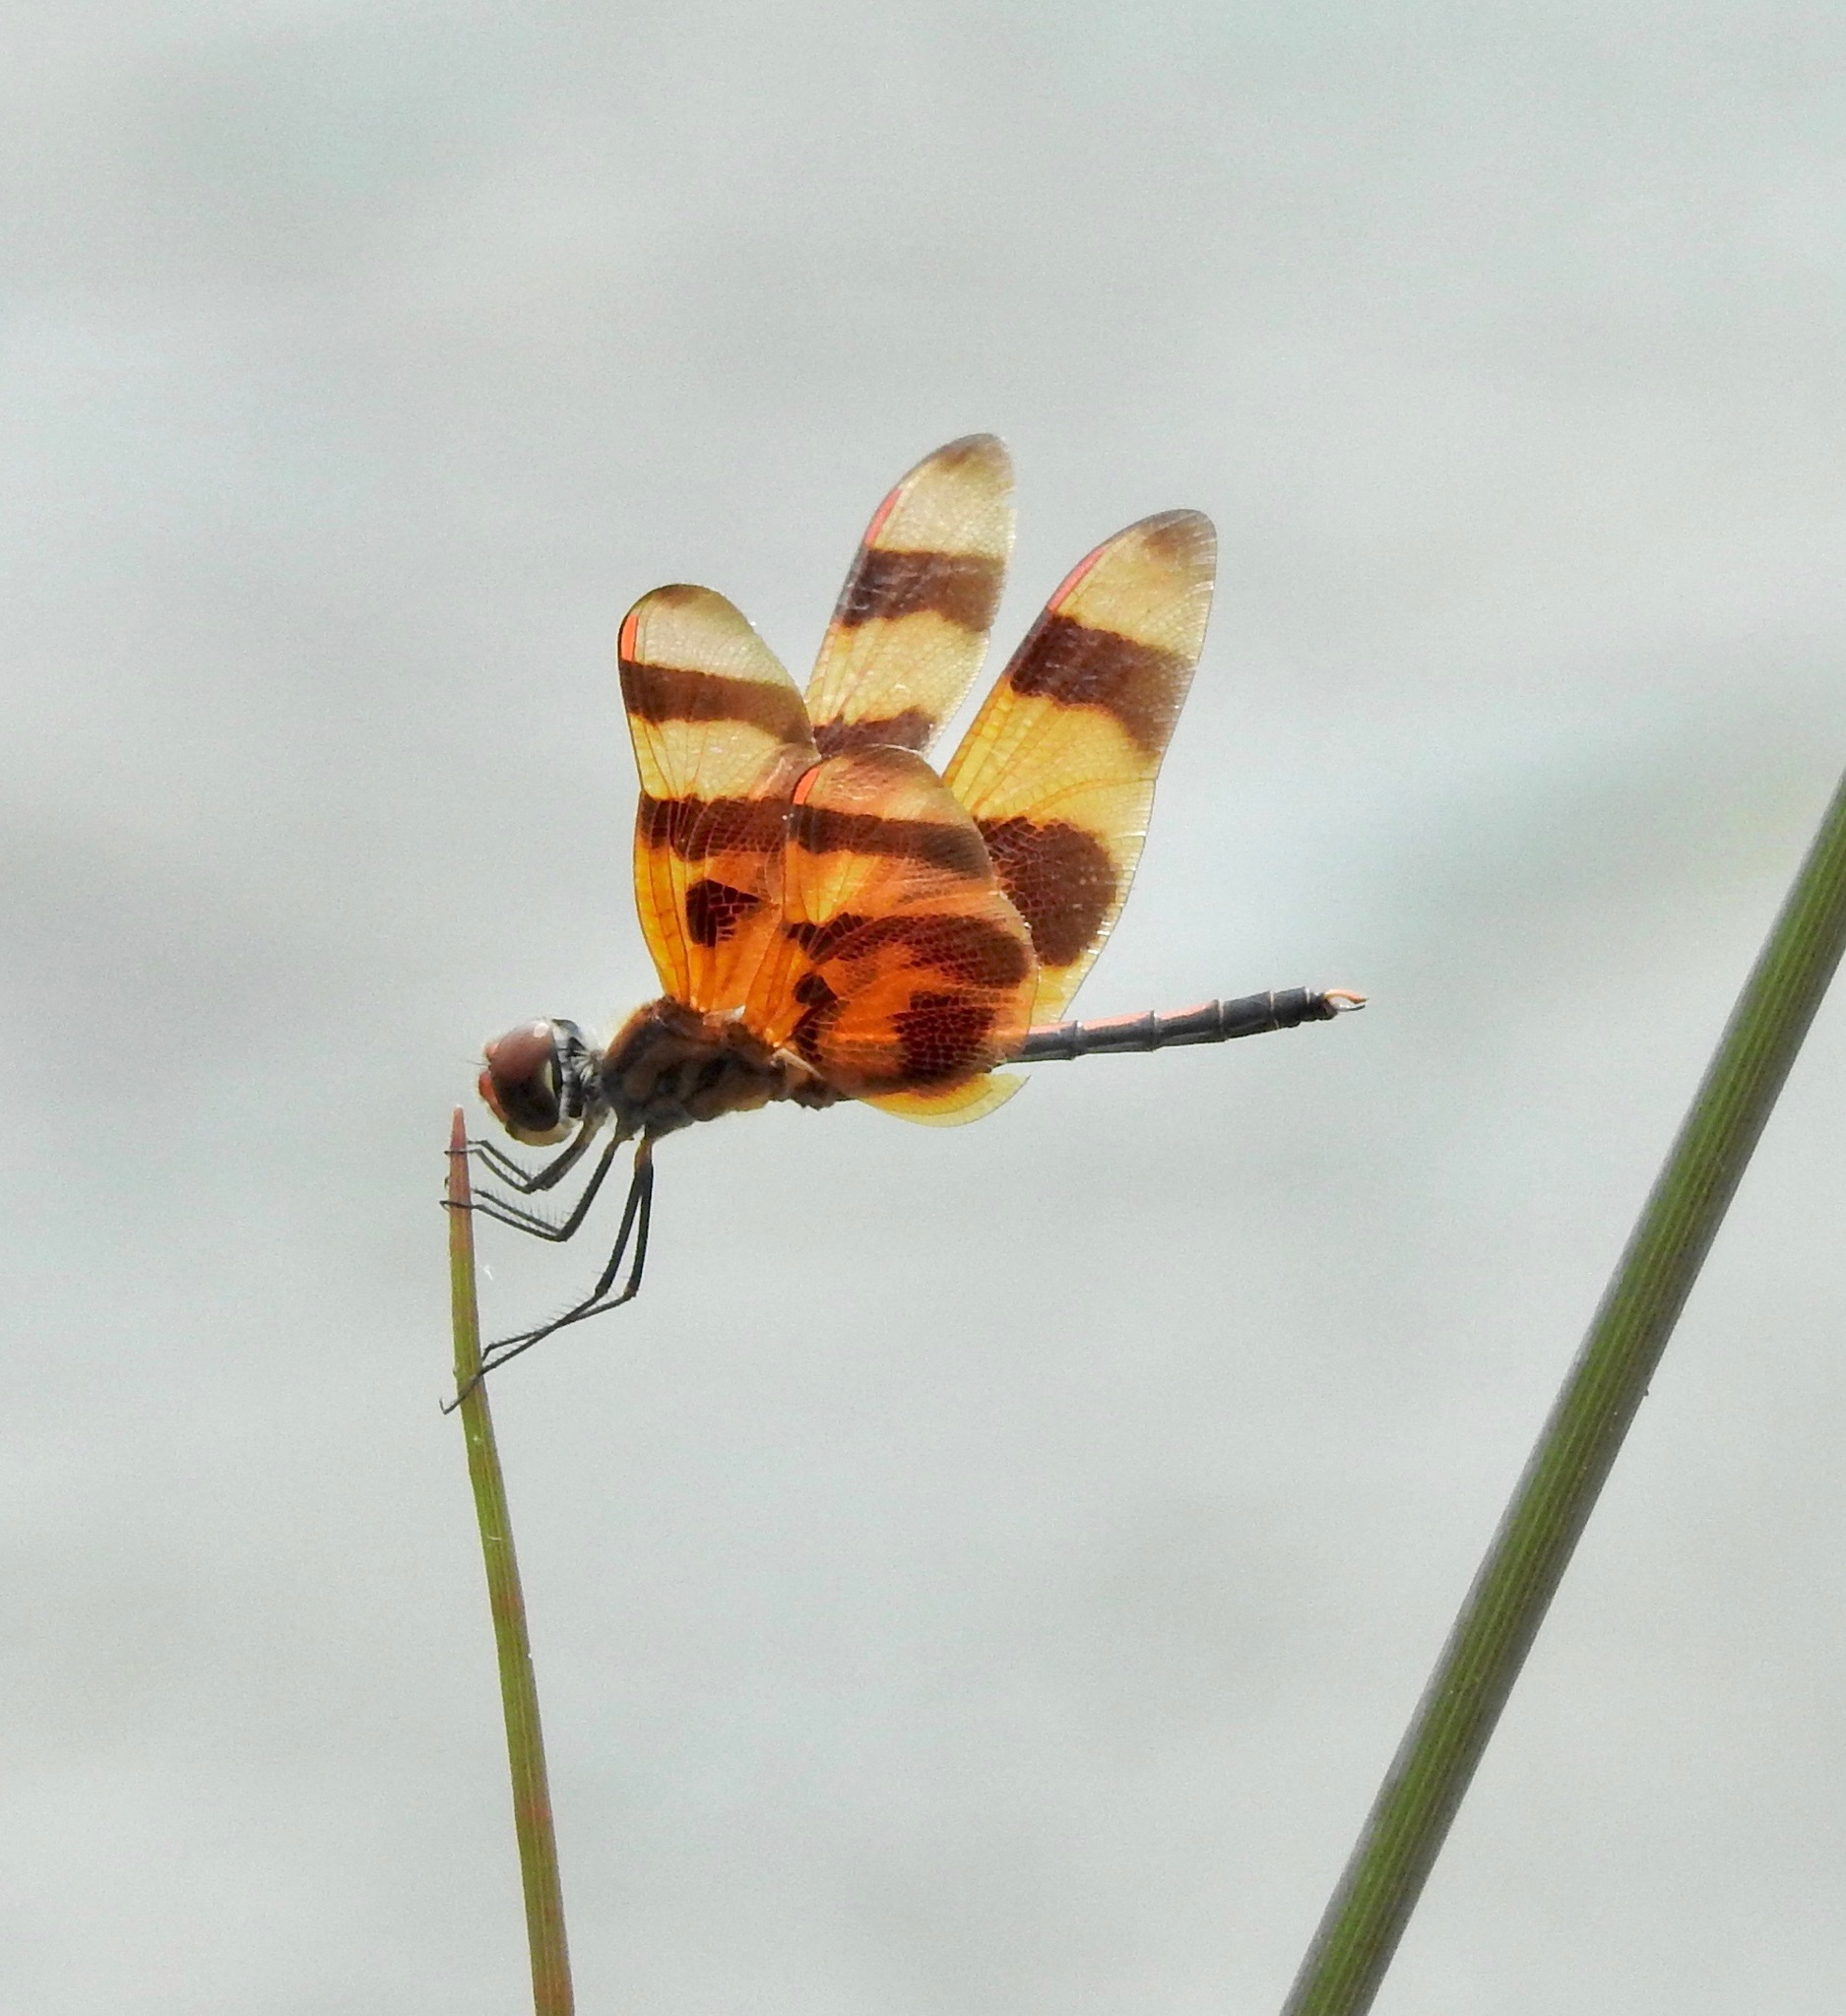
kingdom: Animalia
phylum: Arthropoda
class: Insecta
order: Odonata
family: Libellulidae
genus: Celithemis
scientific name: Celithemis eponina
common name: Halloween pennant
